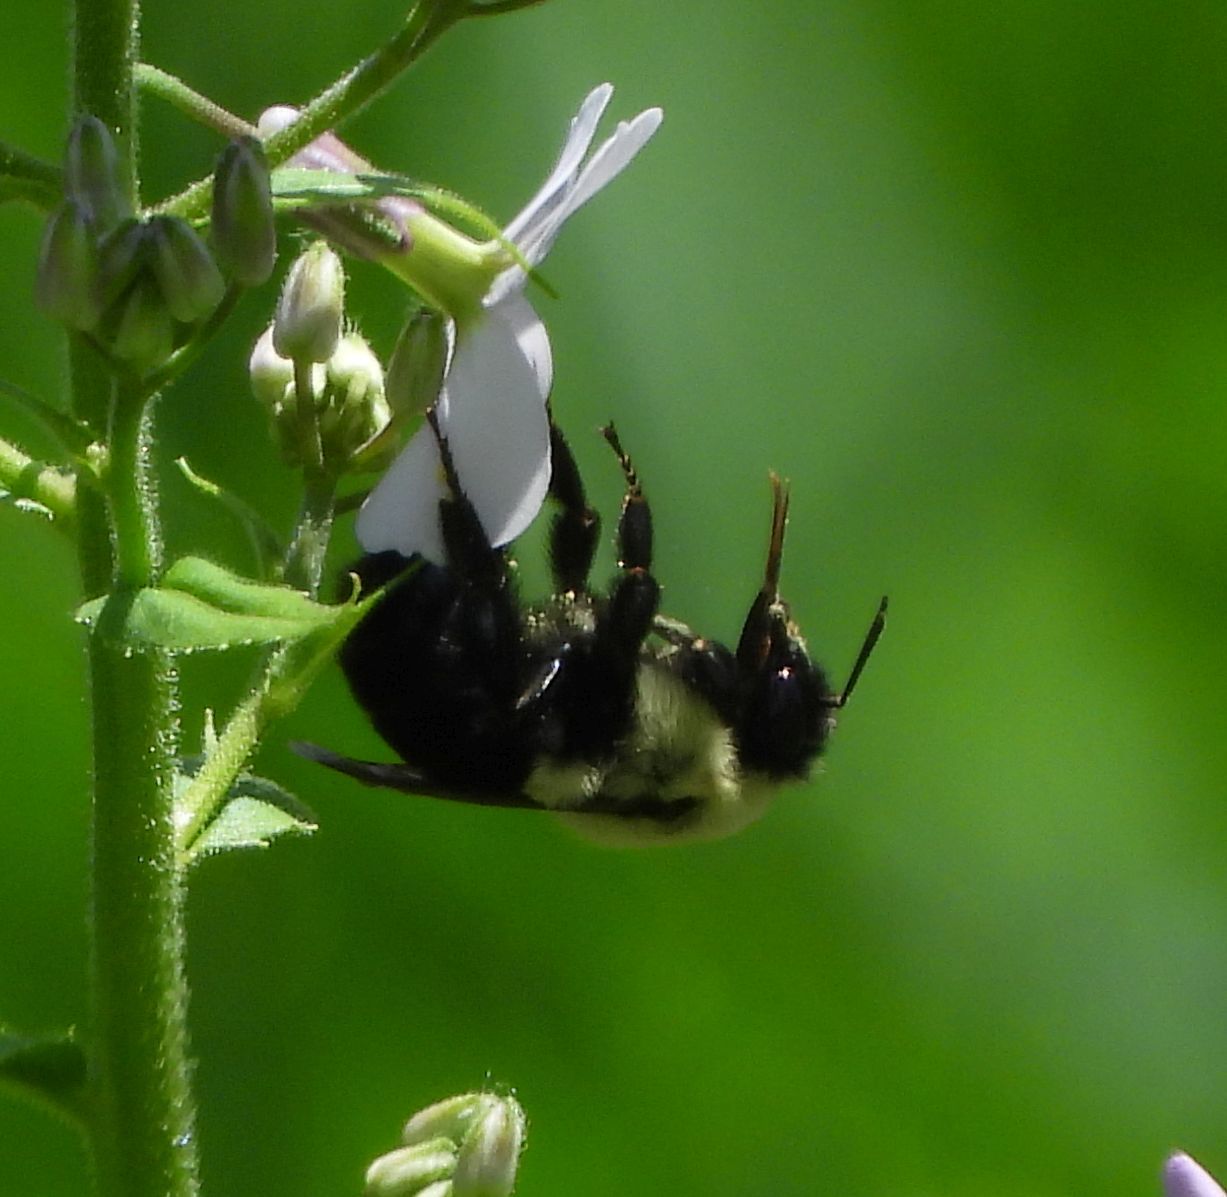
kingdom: Animalia
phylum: Arthropoda
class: Insecta
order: Hymenoptera
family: Apidae
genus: Bombus
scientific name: Bombus impatiens
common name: Common eastern bumble bee
